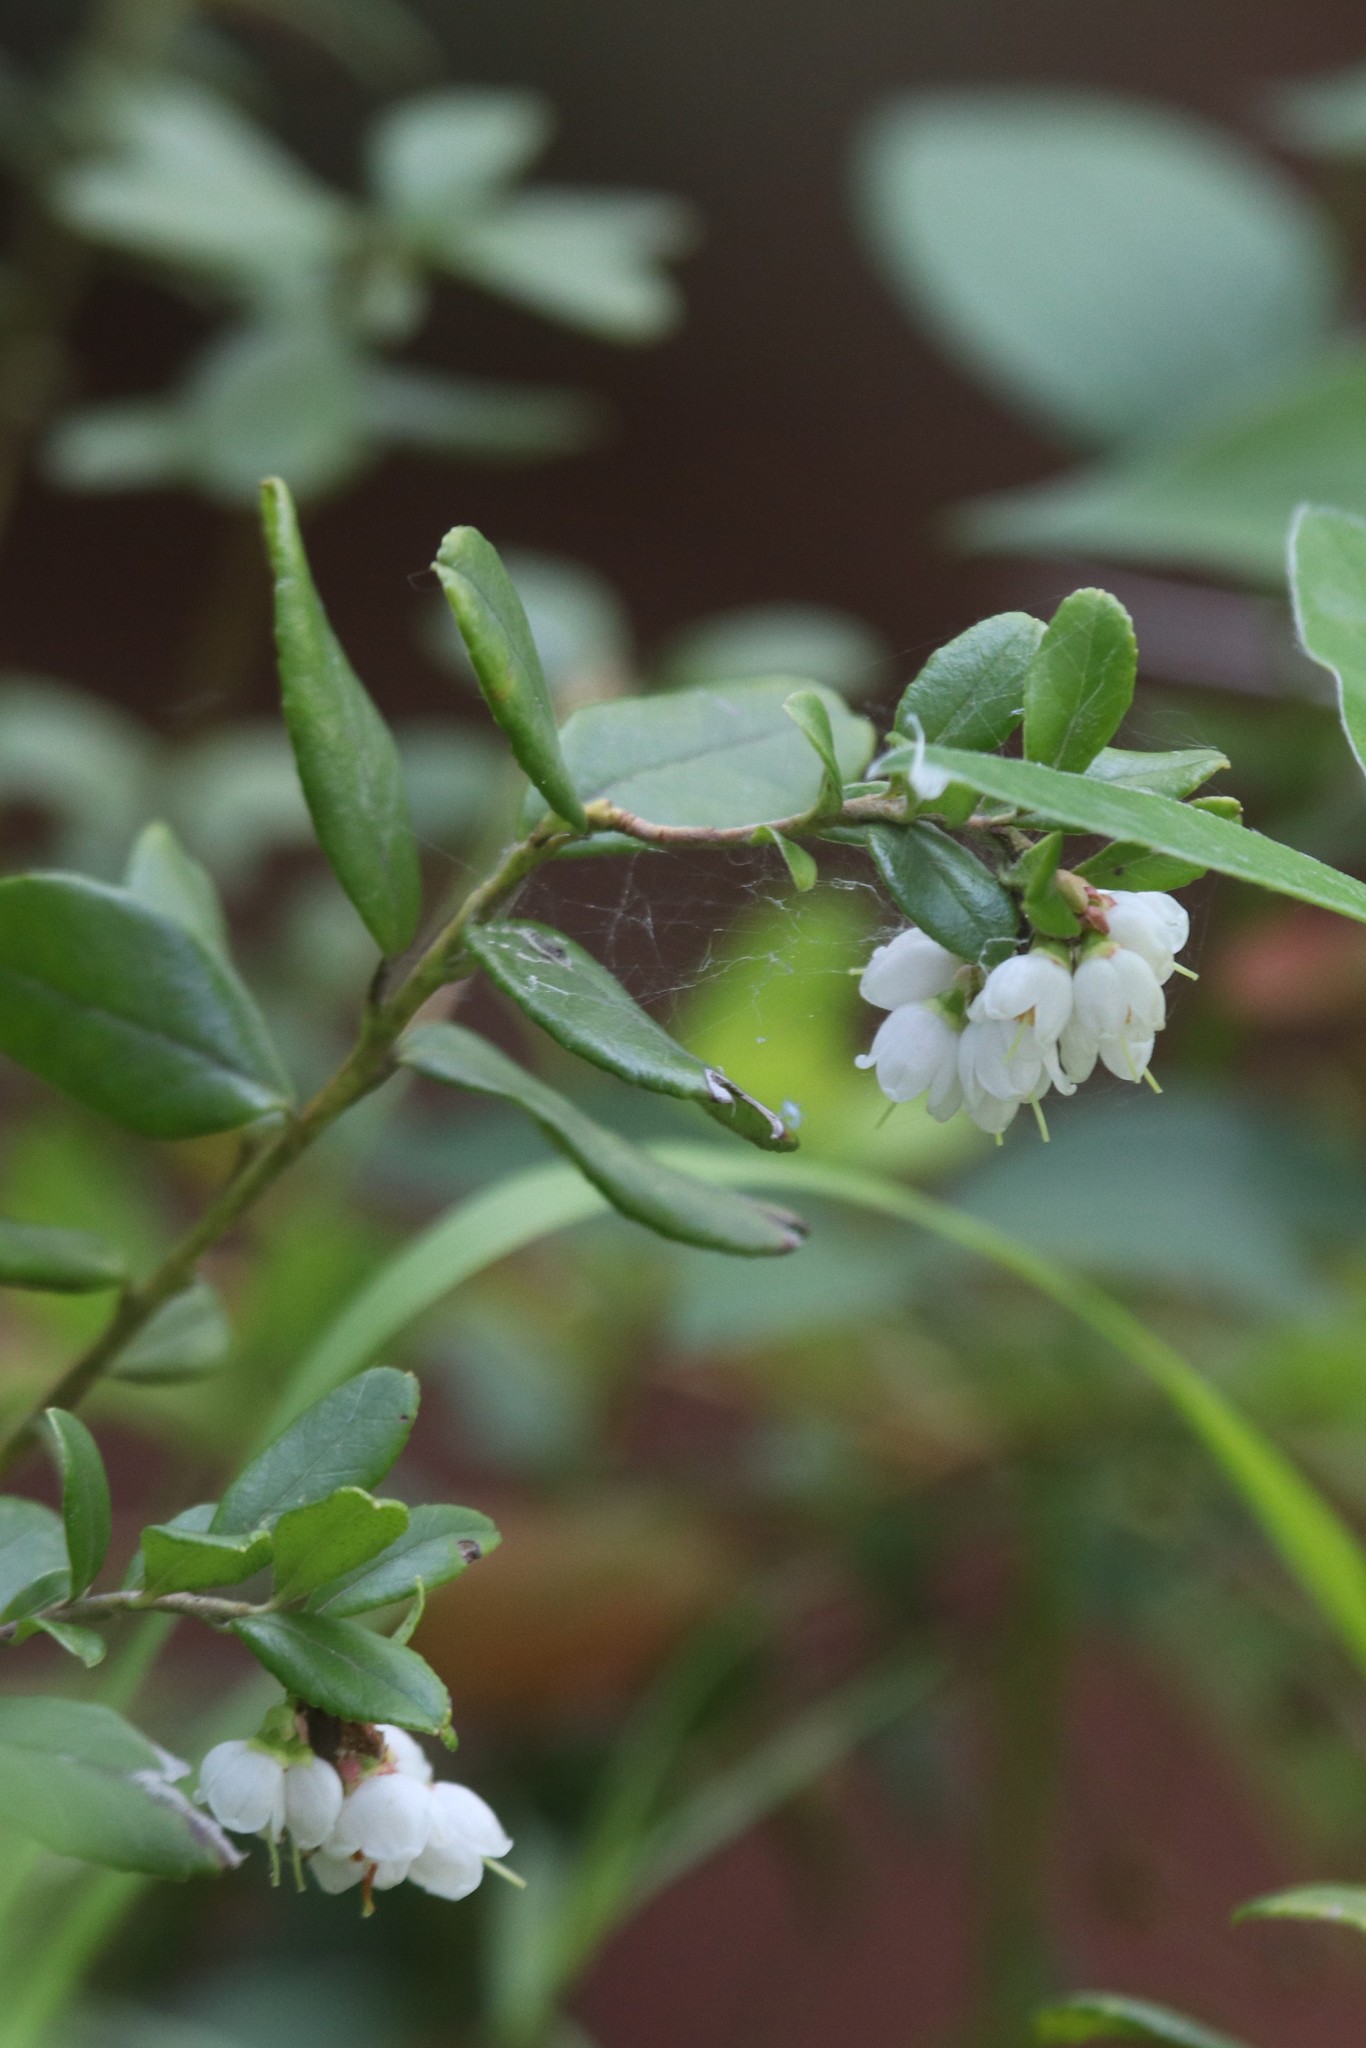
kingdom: Plantae
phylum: Tracheophyta
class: Magnoliopsida
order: Ericales
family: Ericaceae
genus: Vaccinium
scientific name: Vaccinium vitis-idaea
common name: Cowberry
